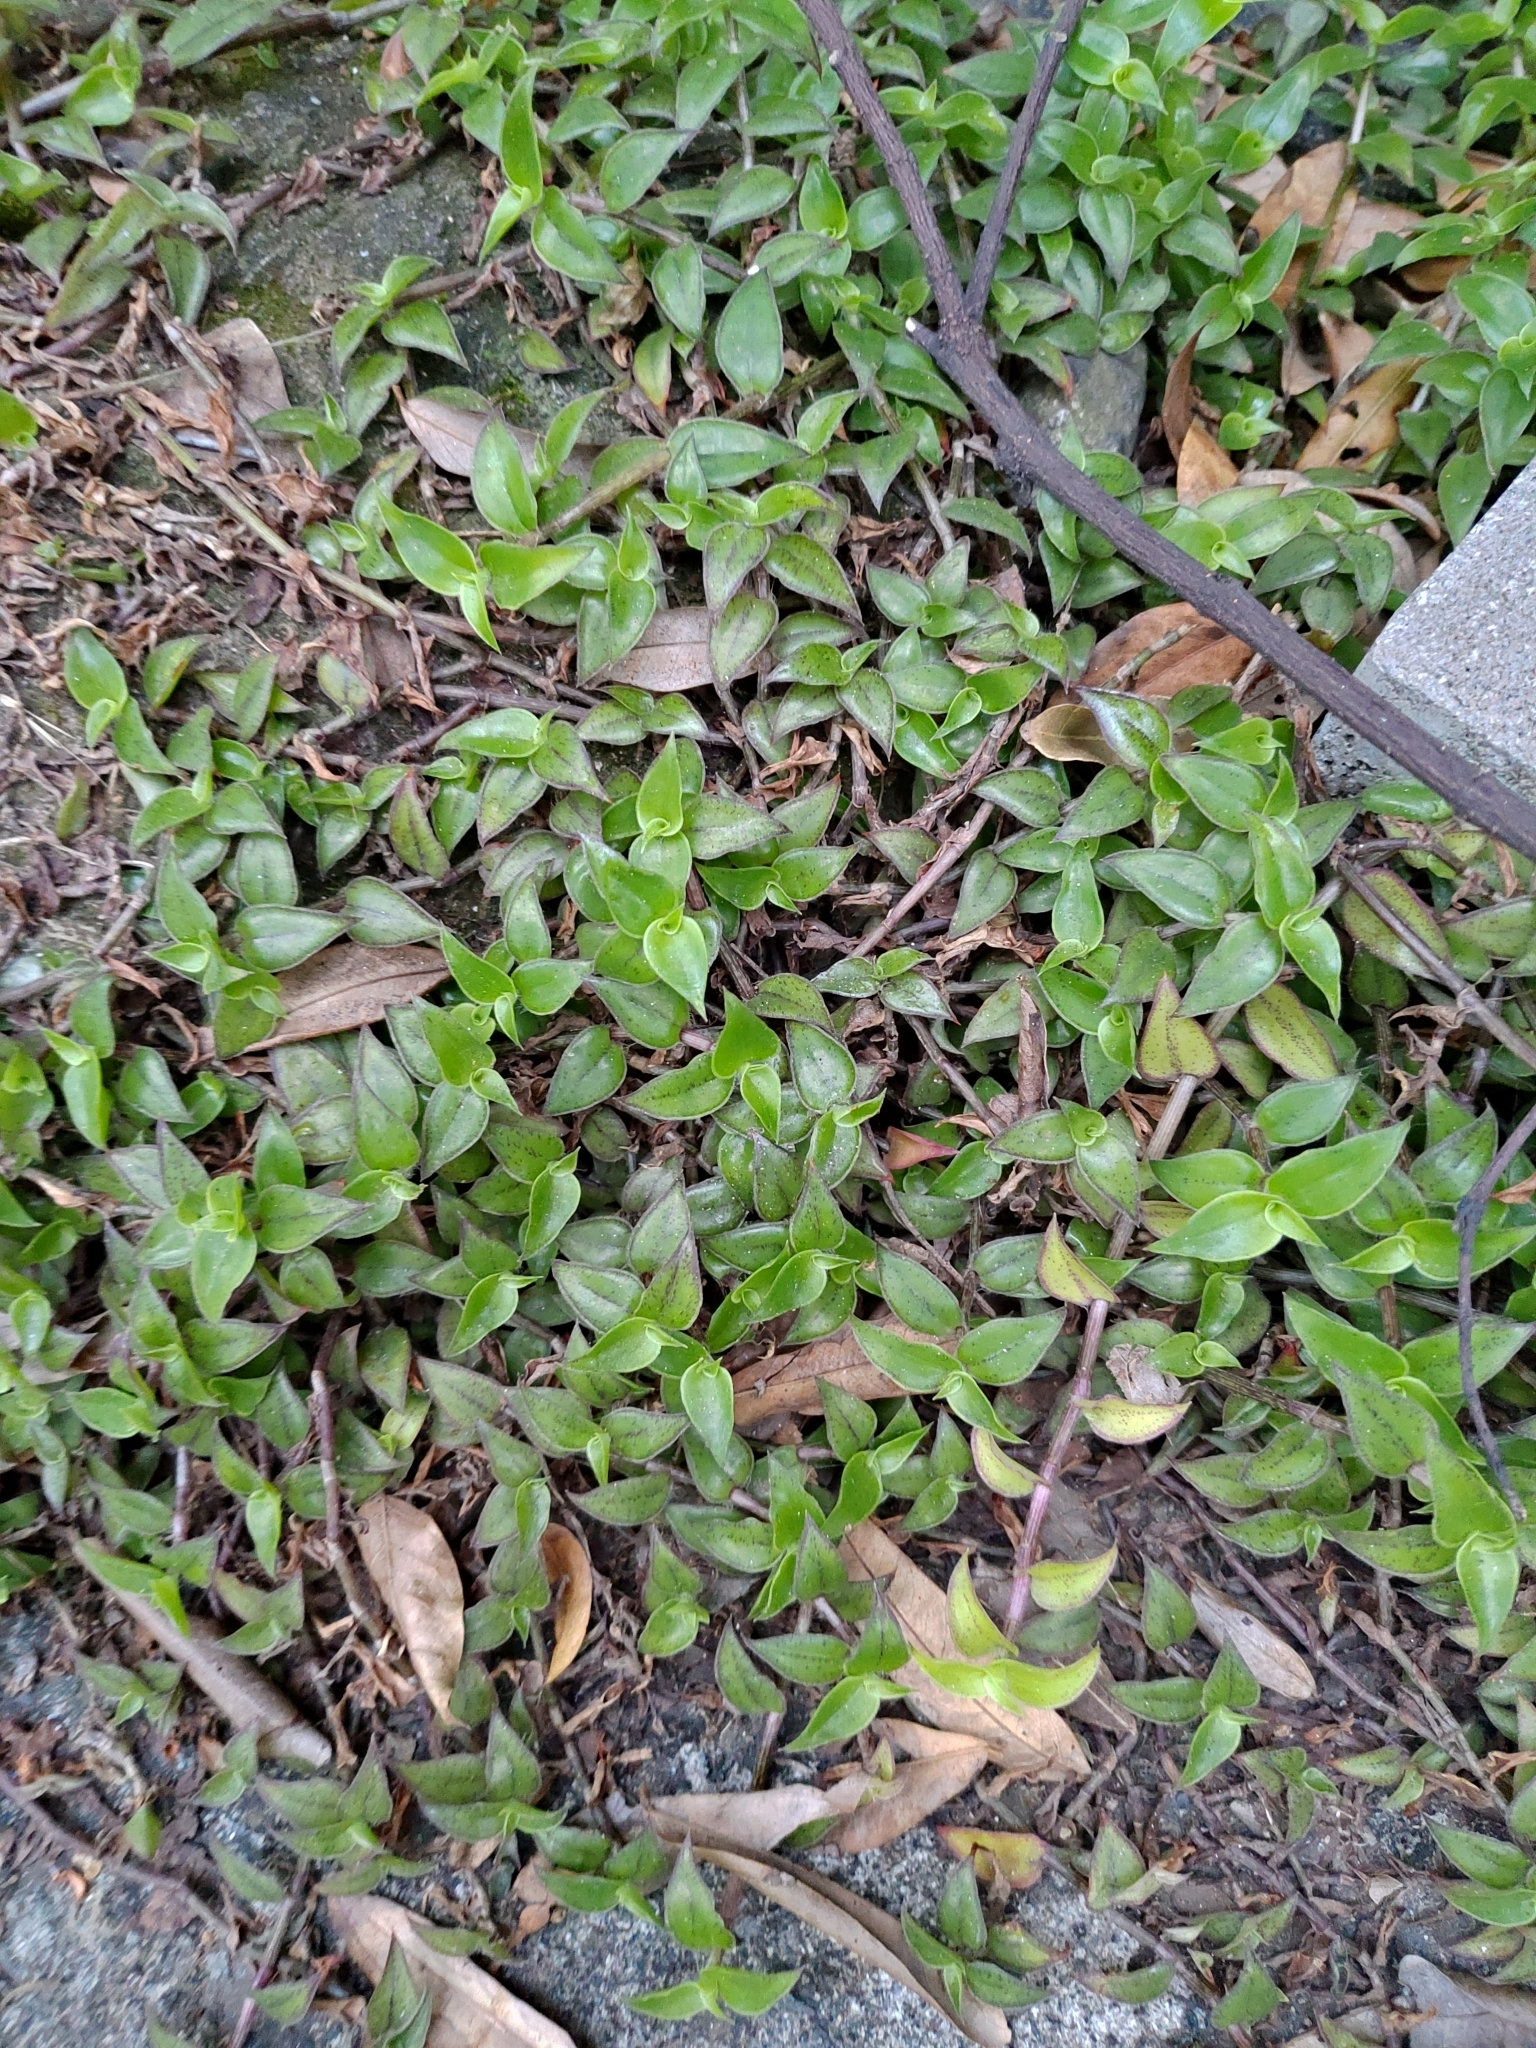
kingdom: Plantae
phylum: Tracheophyta
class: Liliopsida
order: Commelinales
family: Commelinaceae
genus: Callisia
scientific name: Callisia repens
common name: Creeping inchplant
